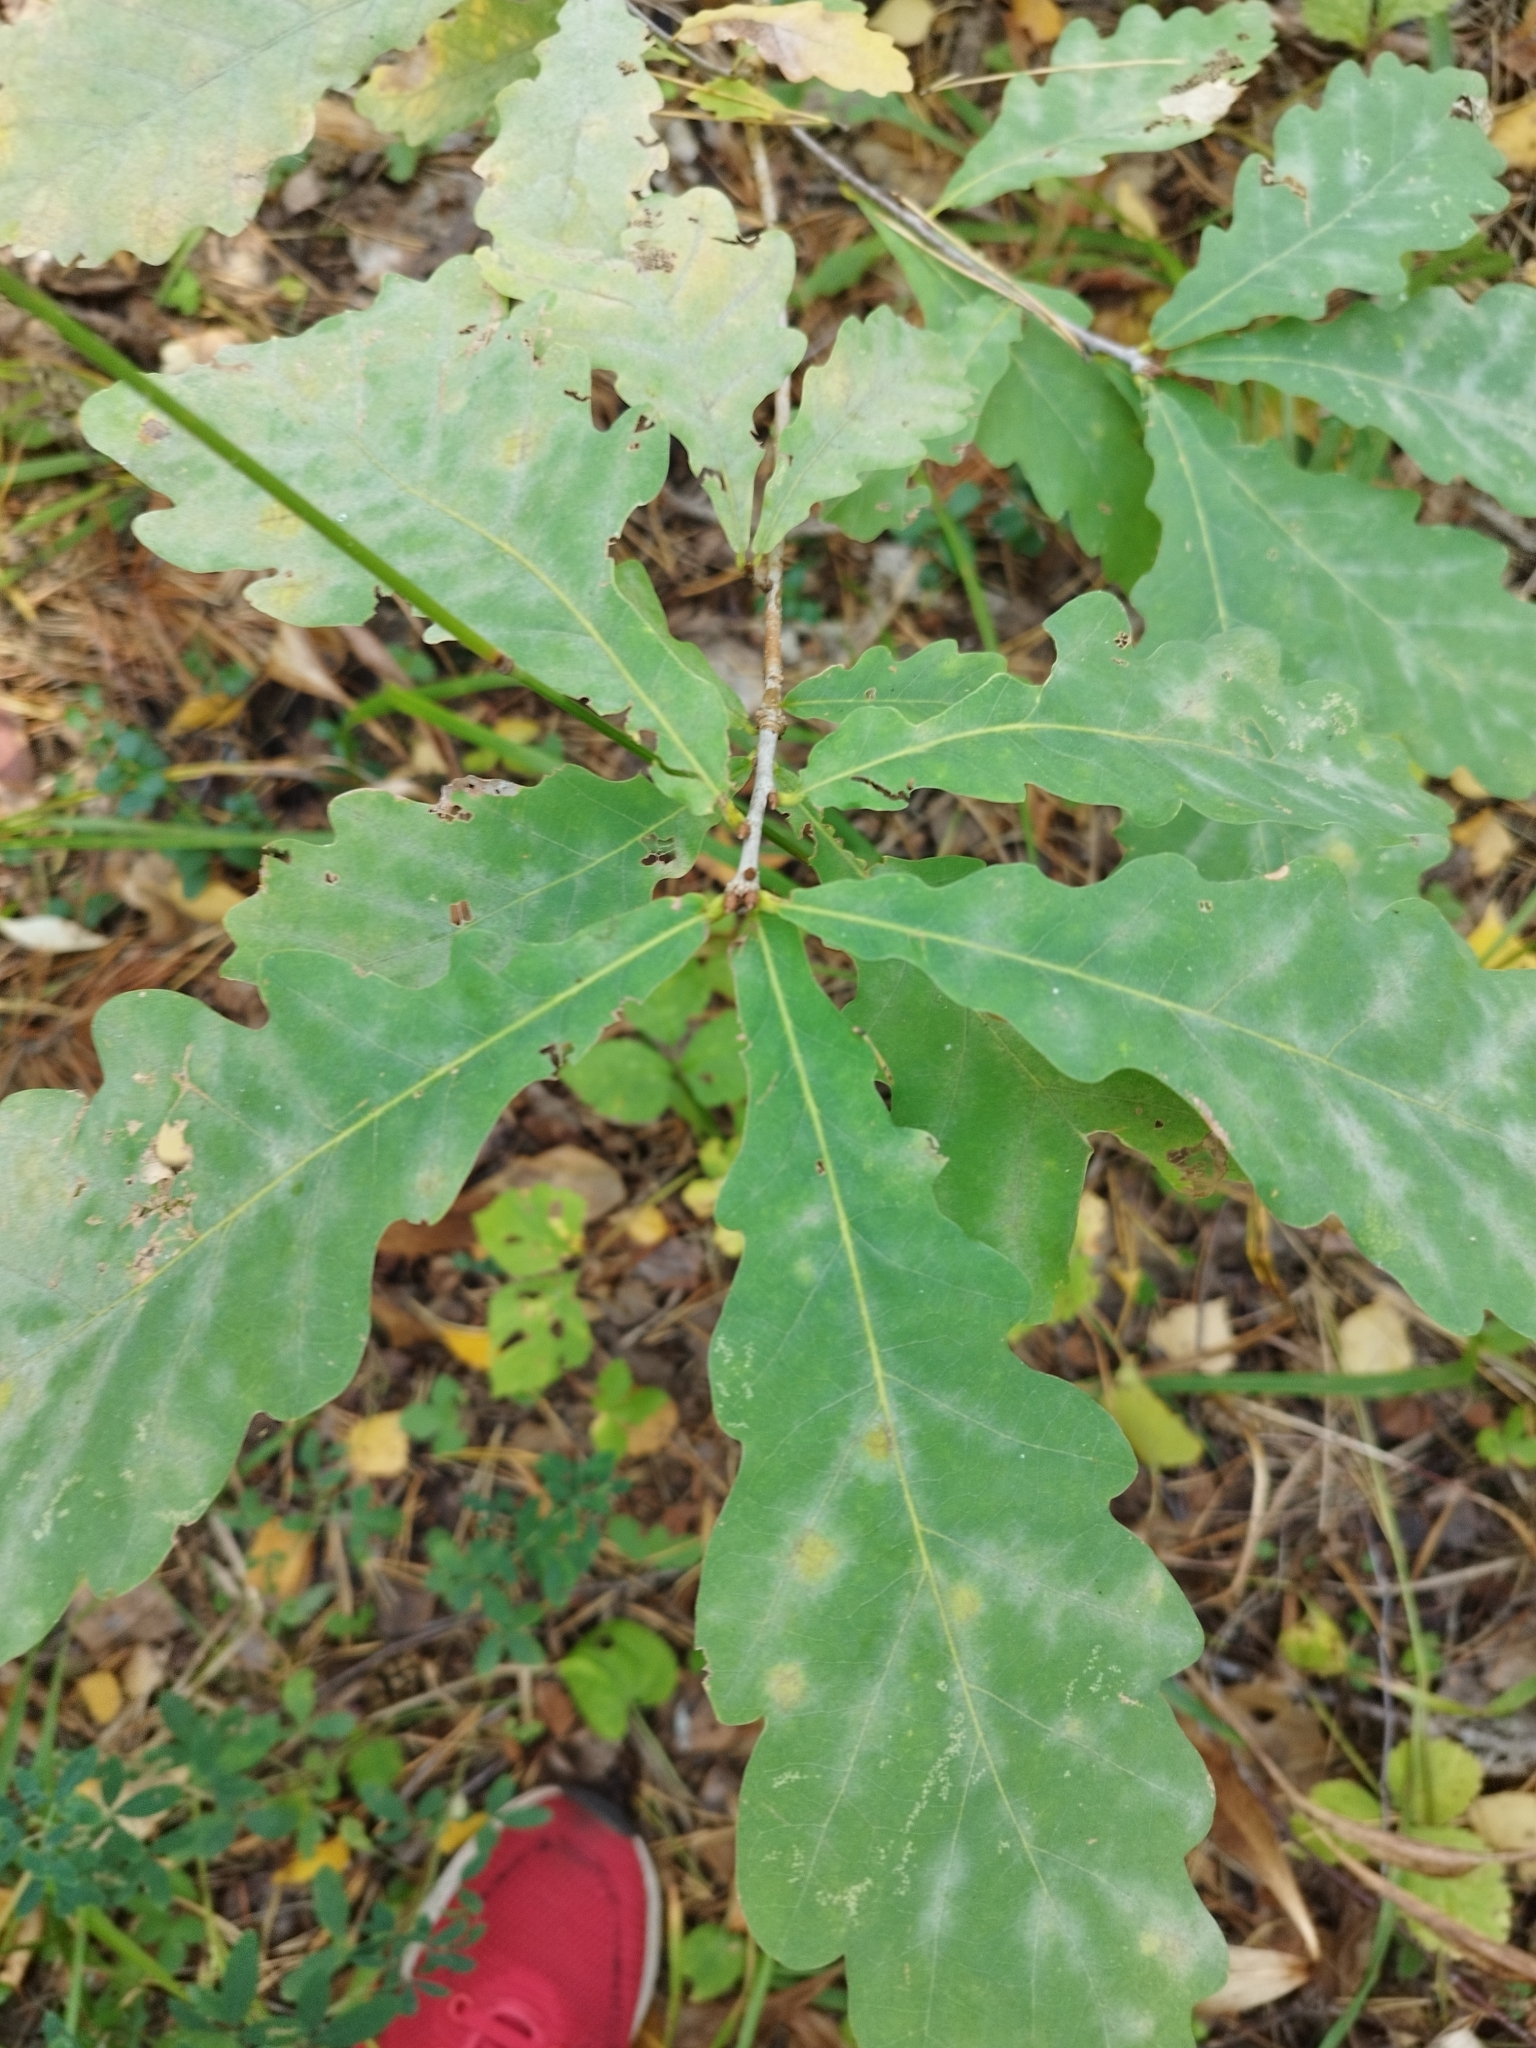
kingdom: Plantae
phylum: Tracheophyta
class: Magnoliopsida
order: Fagales
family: Fagaceae
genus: Quercus
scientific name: Quercus robur
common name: Pedunculate oak
